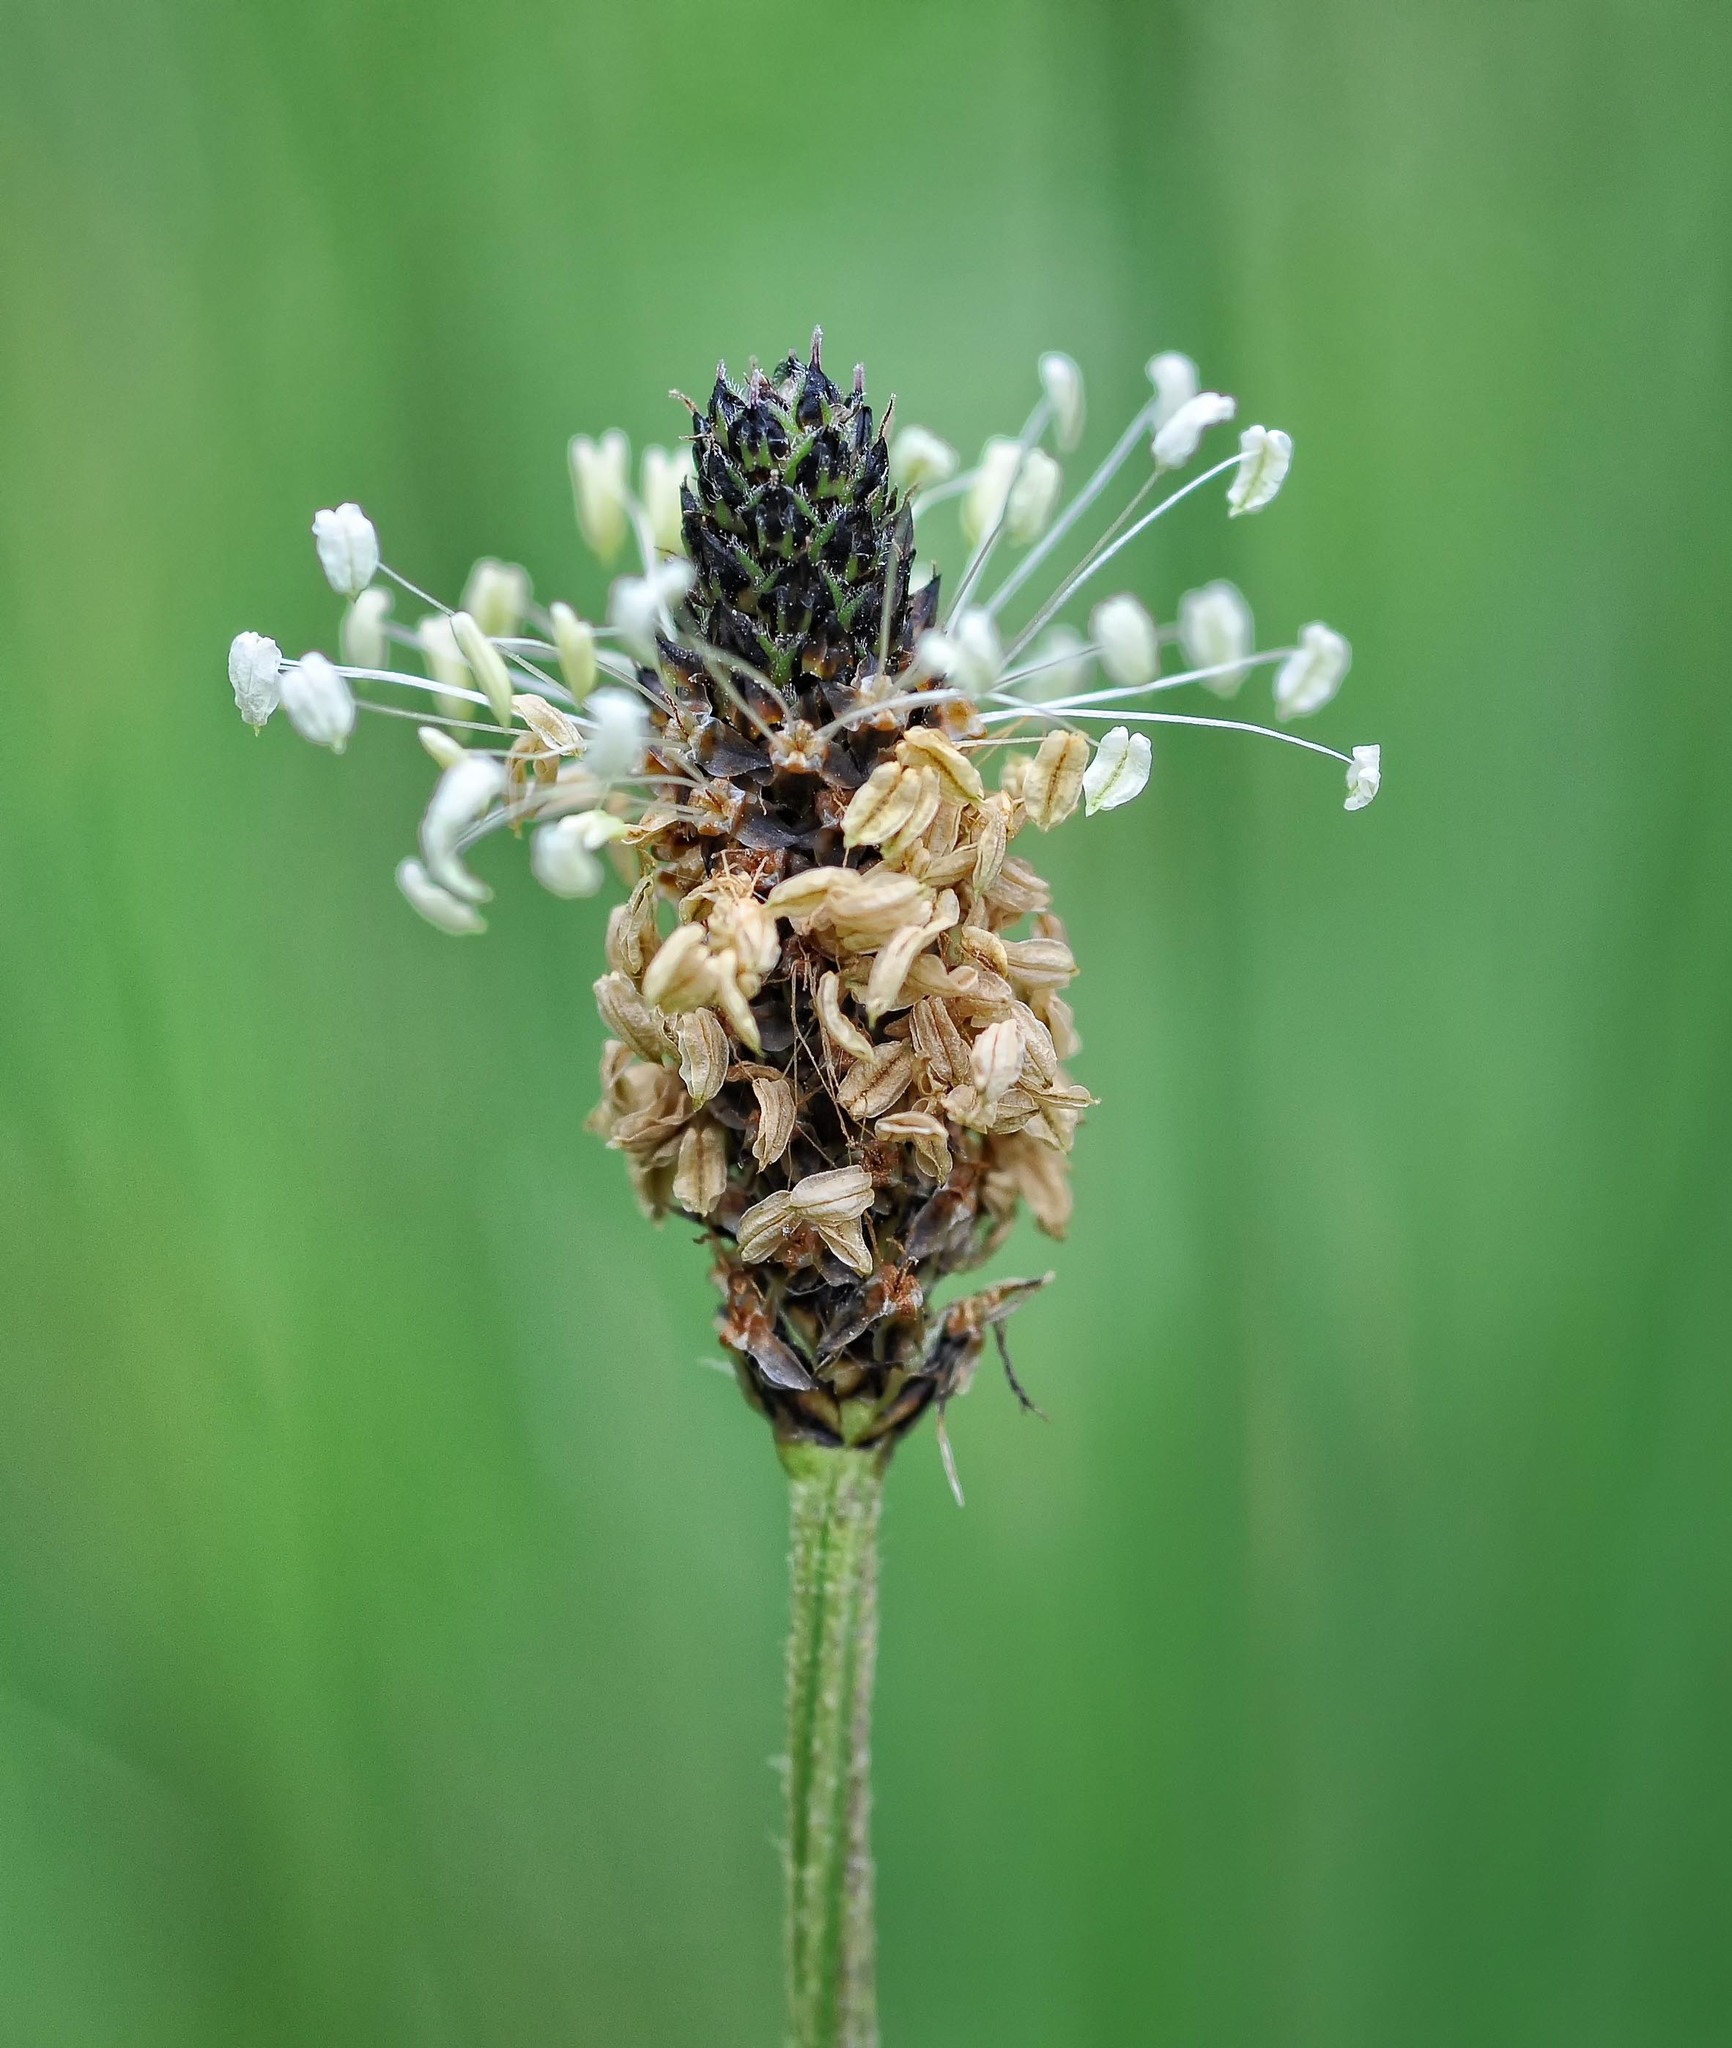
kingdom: Plantae
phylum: Tracheophyta
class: Magnoliopsida
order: Lamiales
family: Plantaginaceae
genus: Plantago
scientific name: Plantago lanceolata
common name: Ribwort plantain
